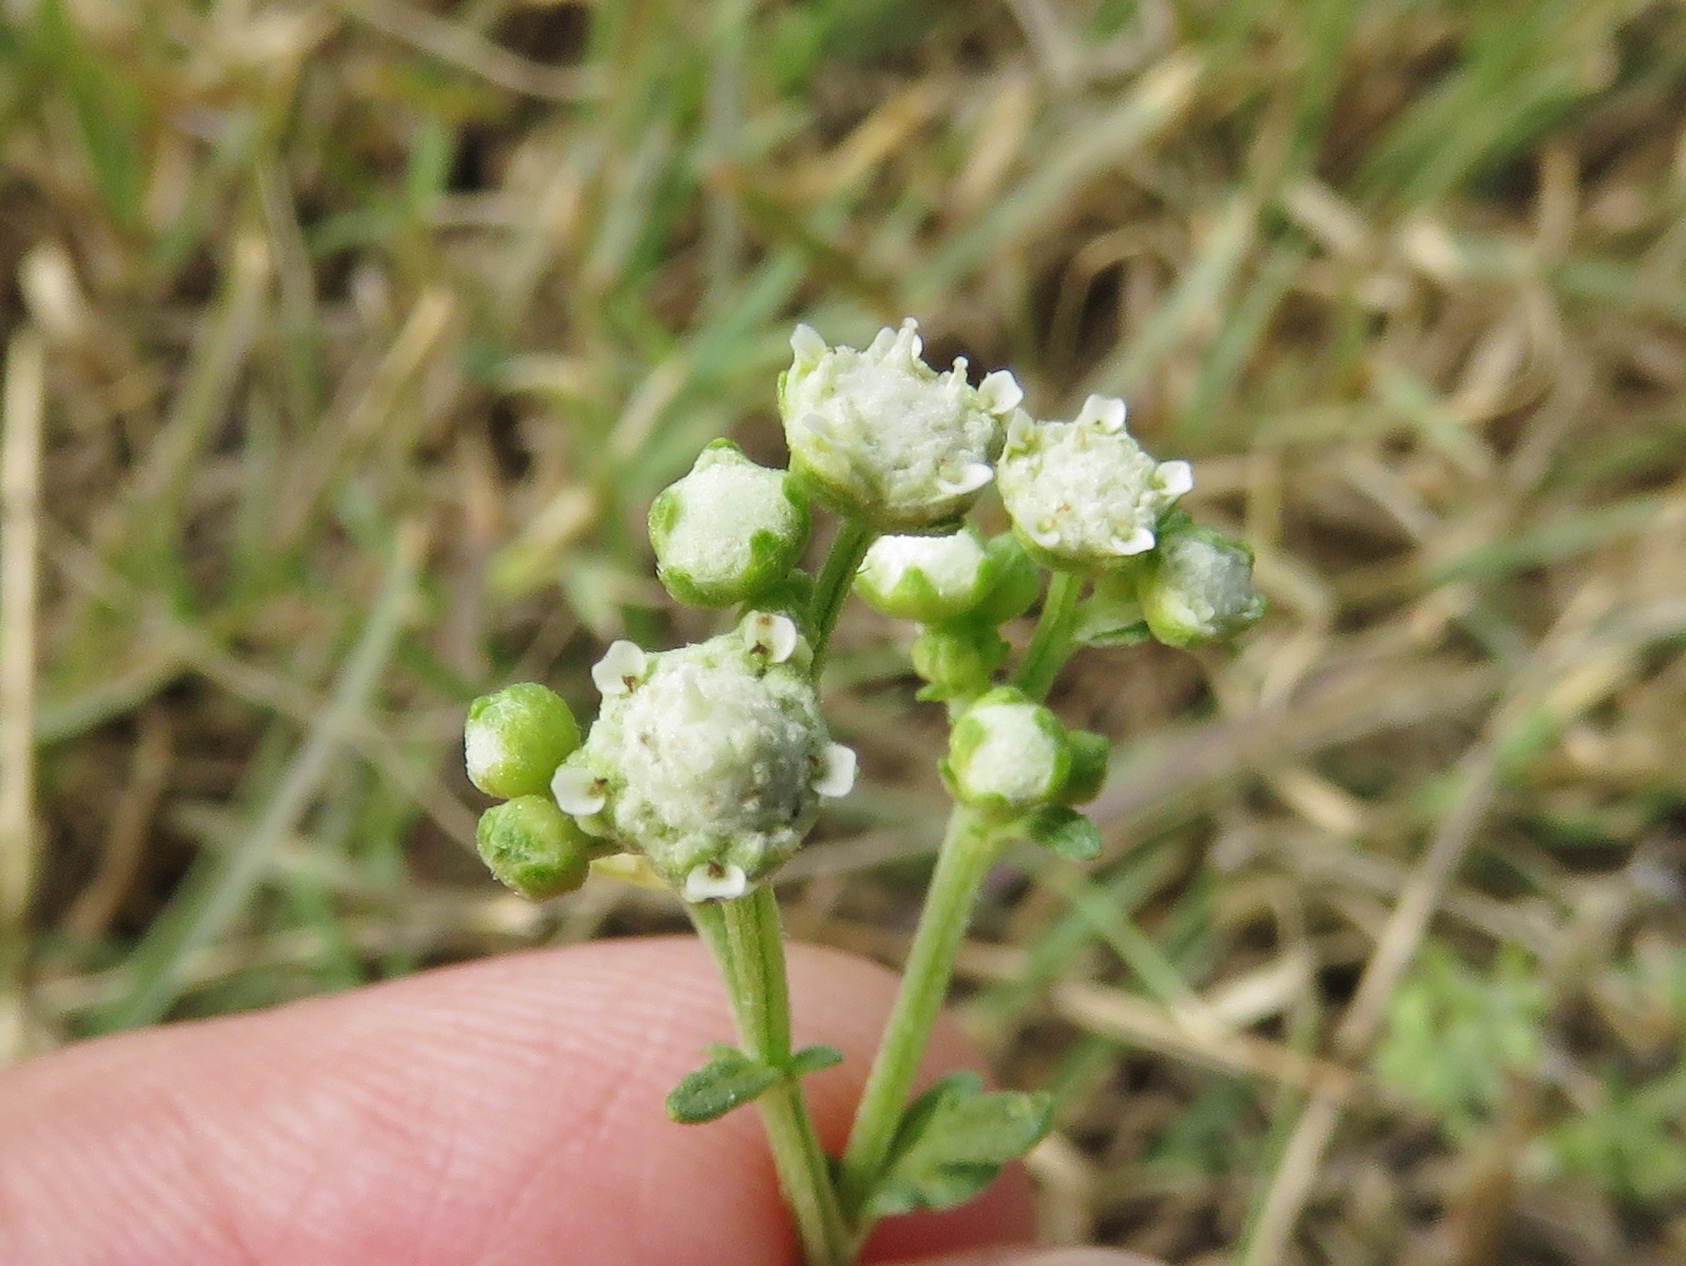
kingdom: Plantae
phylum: Tracheophyta
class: Magnoliopsida
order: Asterales
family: Asteraceae
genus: Parthenium
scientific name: Parthenium hysterophorus
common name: Santa maria feverfew
